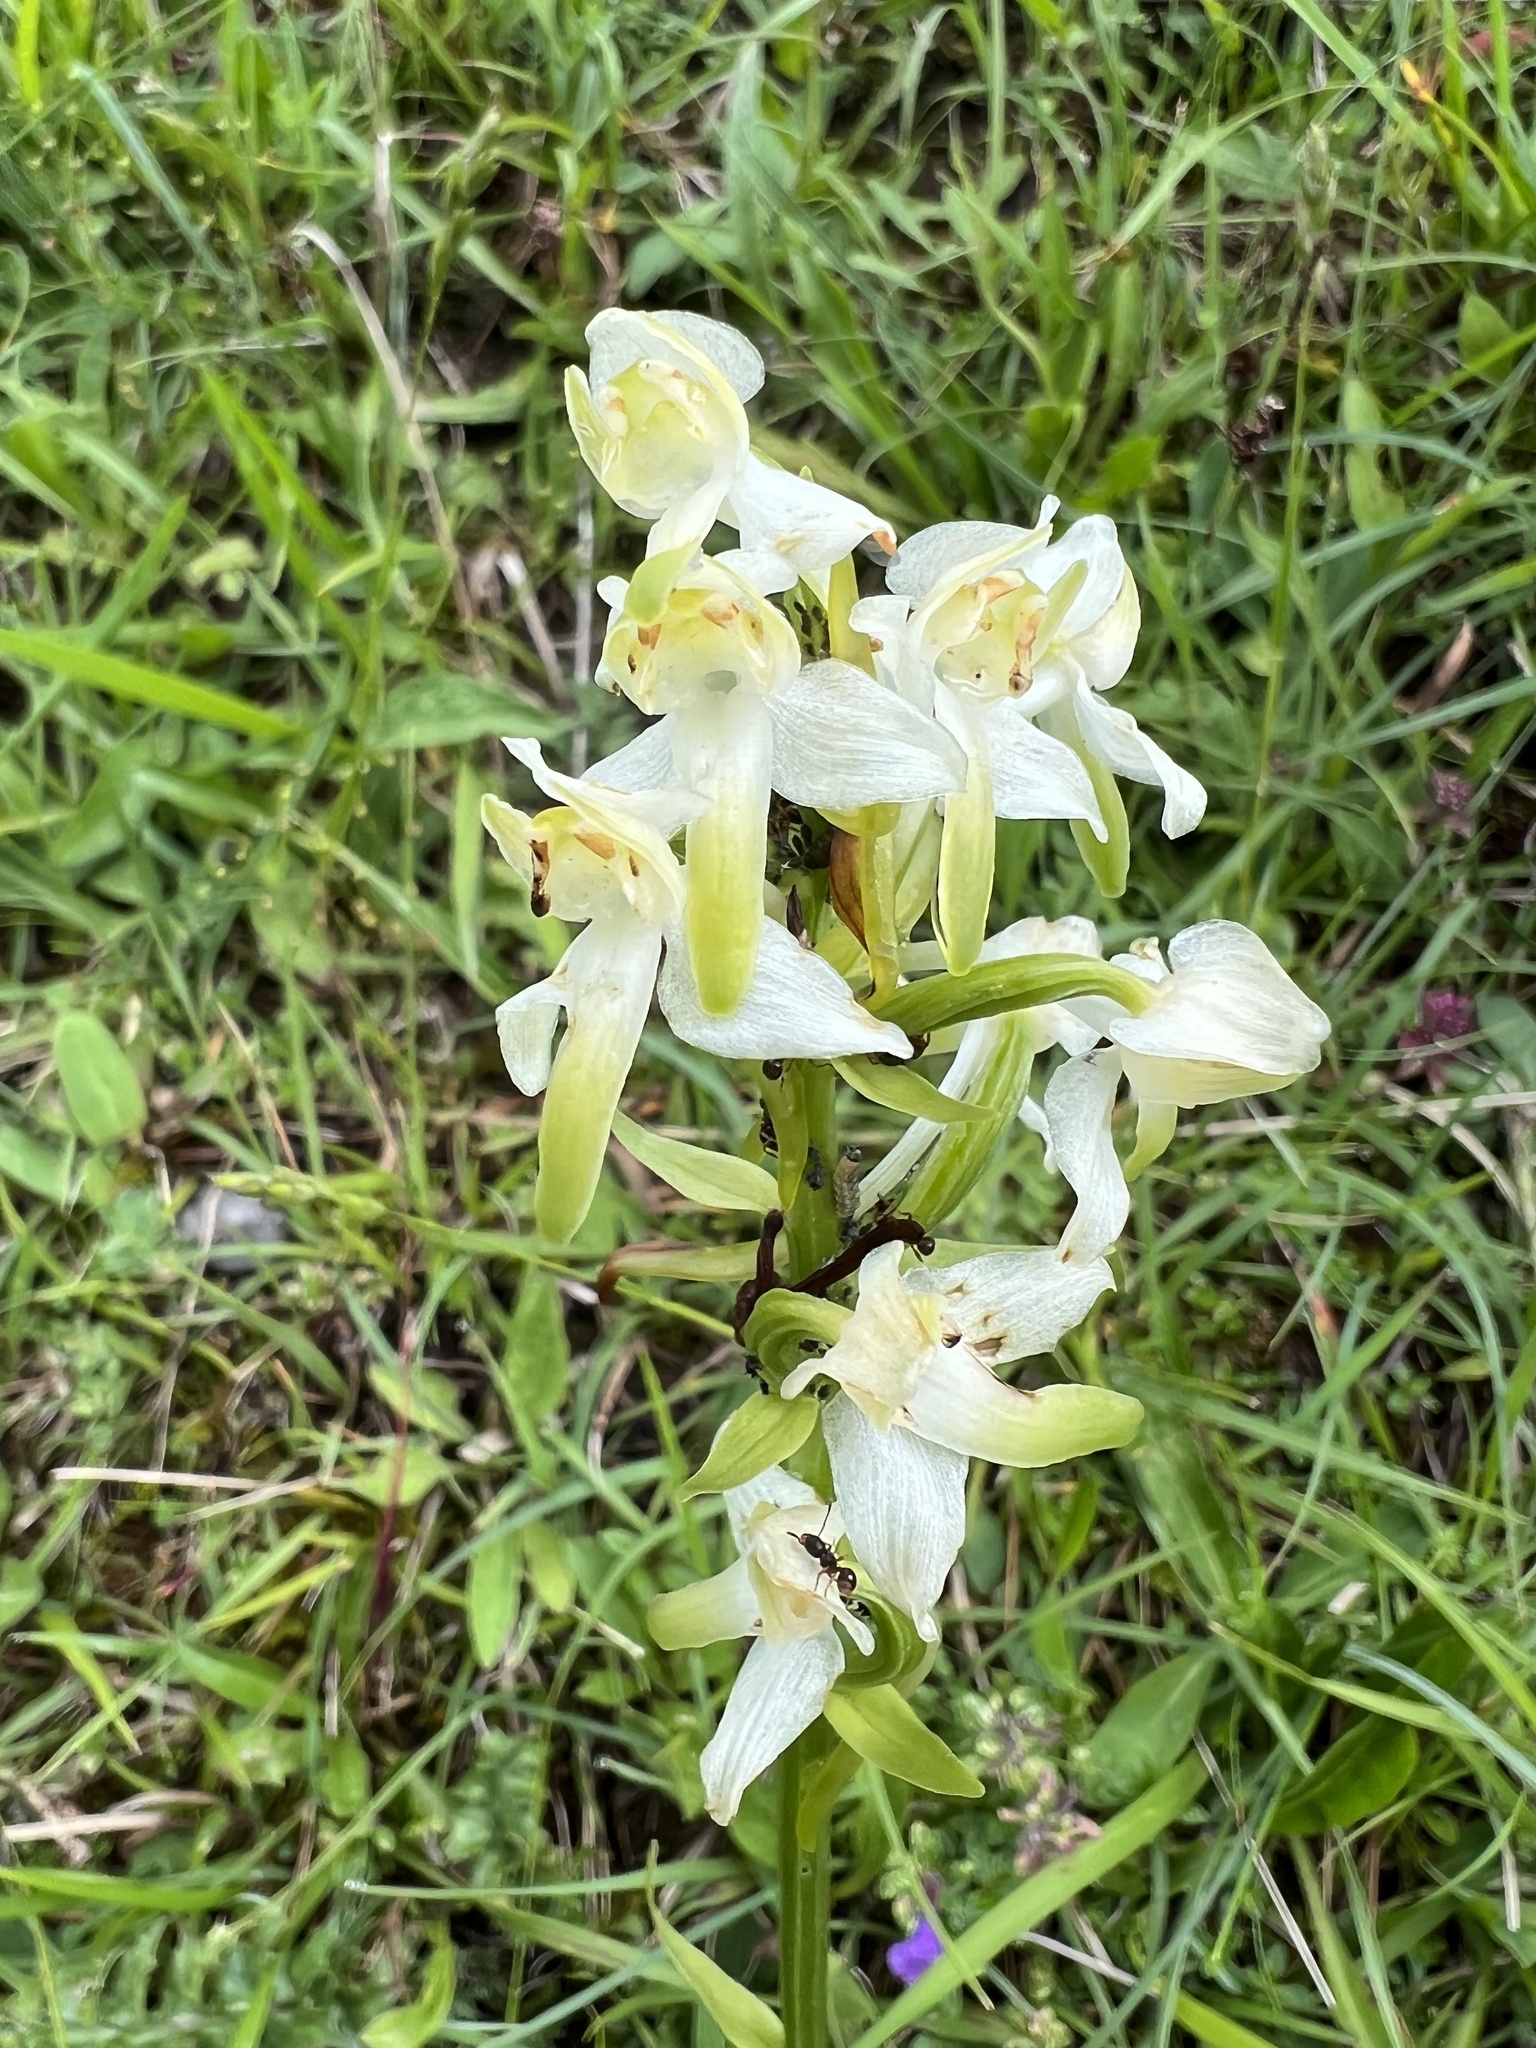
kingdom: Plantae
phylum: Tracheophyta
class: Liliopsida
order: Asparagales
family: Orchidaceae
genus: Platanthera
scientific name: Platanthera chlorantha
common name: Greater butterfly-orchid
